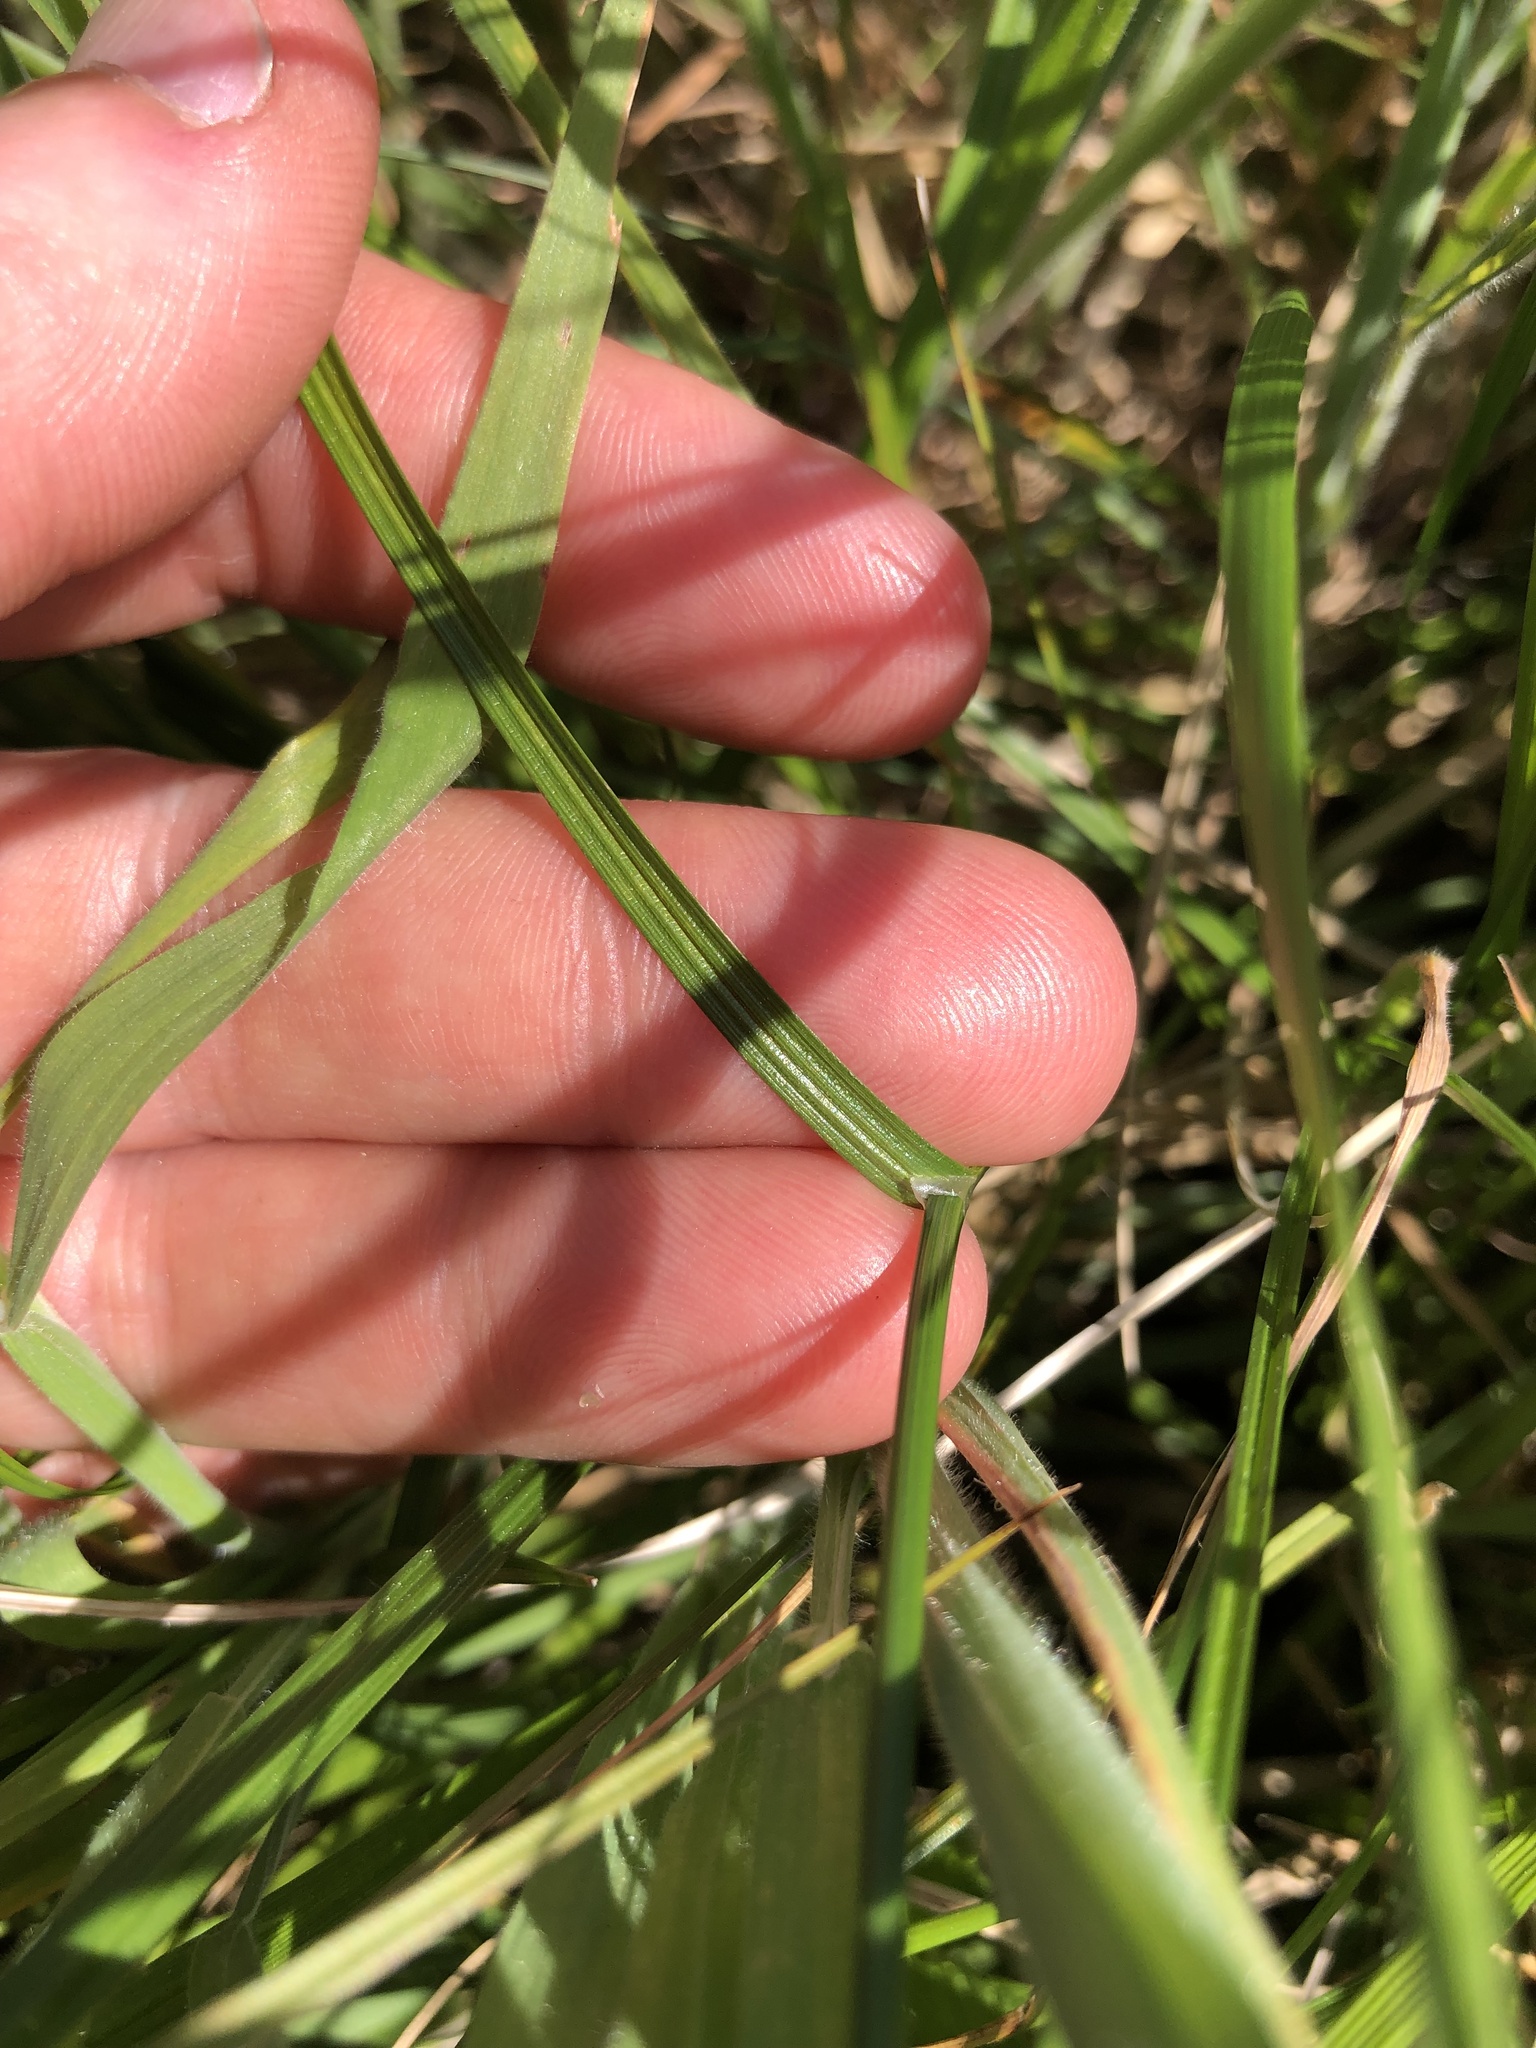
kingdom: Plantae
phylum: Tracheophyta
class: Liliopsida
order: Poales
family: Cyperaceae
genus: Carex
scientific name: Carex disticha
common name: Brown sedge
